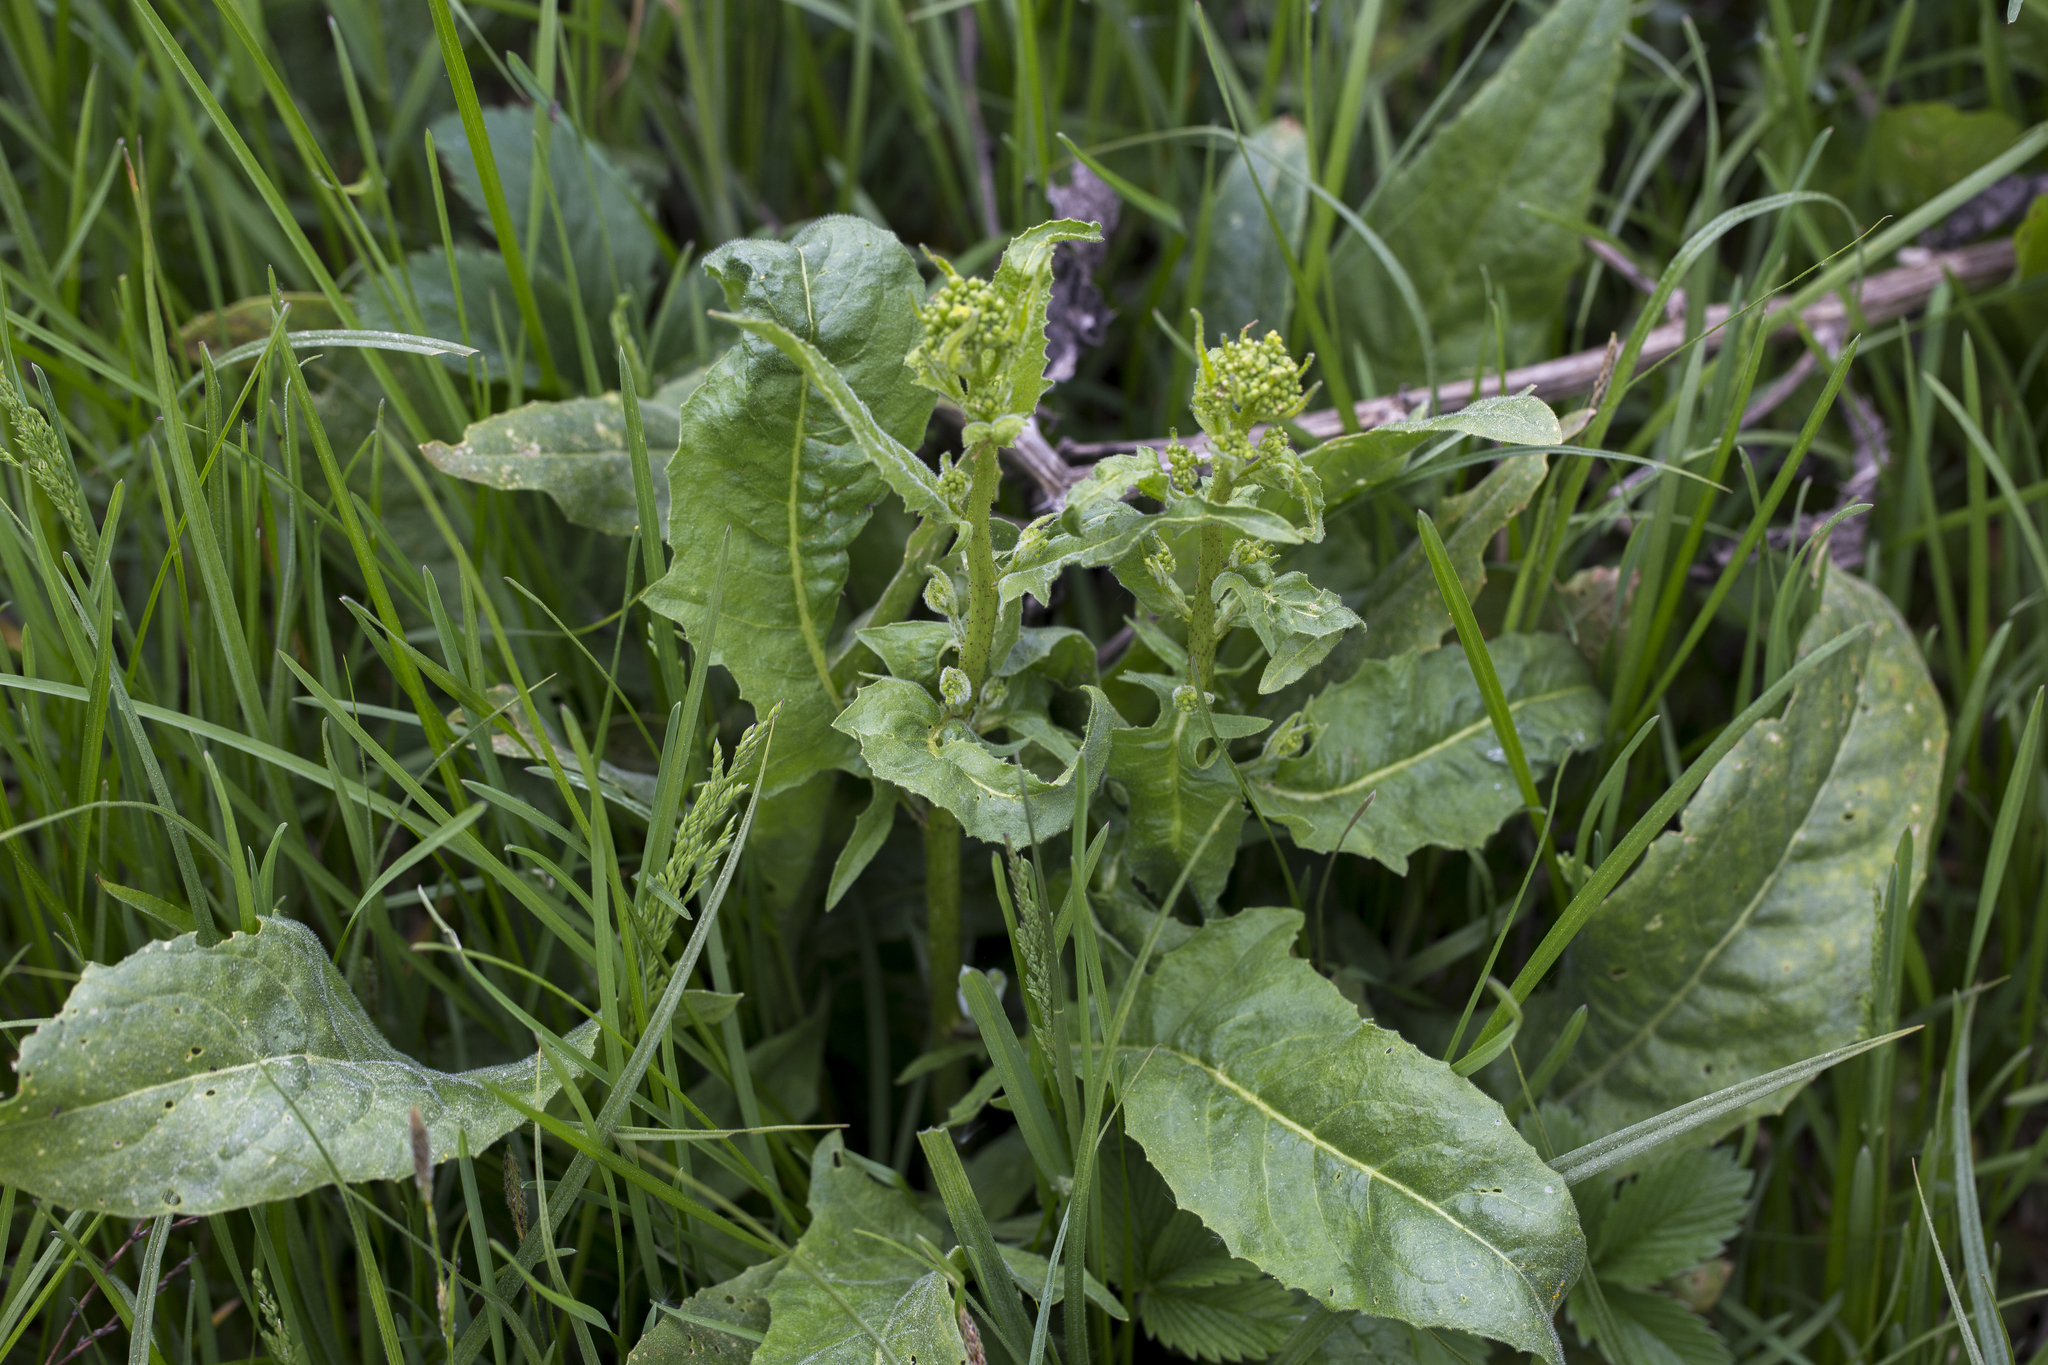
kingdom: Plantae
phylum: Tracheophyta
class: Magnoliopsida
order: Brassicales
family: Brassicaceae
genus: Bunias
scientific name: Bunias orientalis
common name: Warty-cabbage
